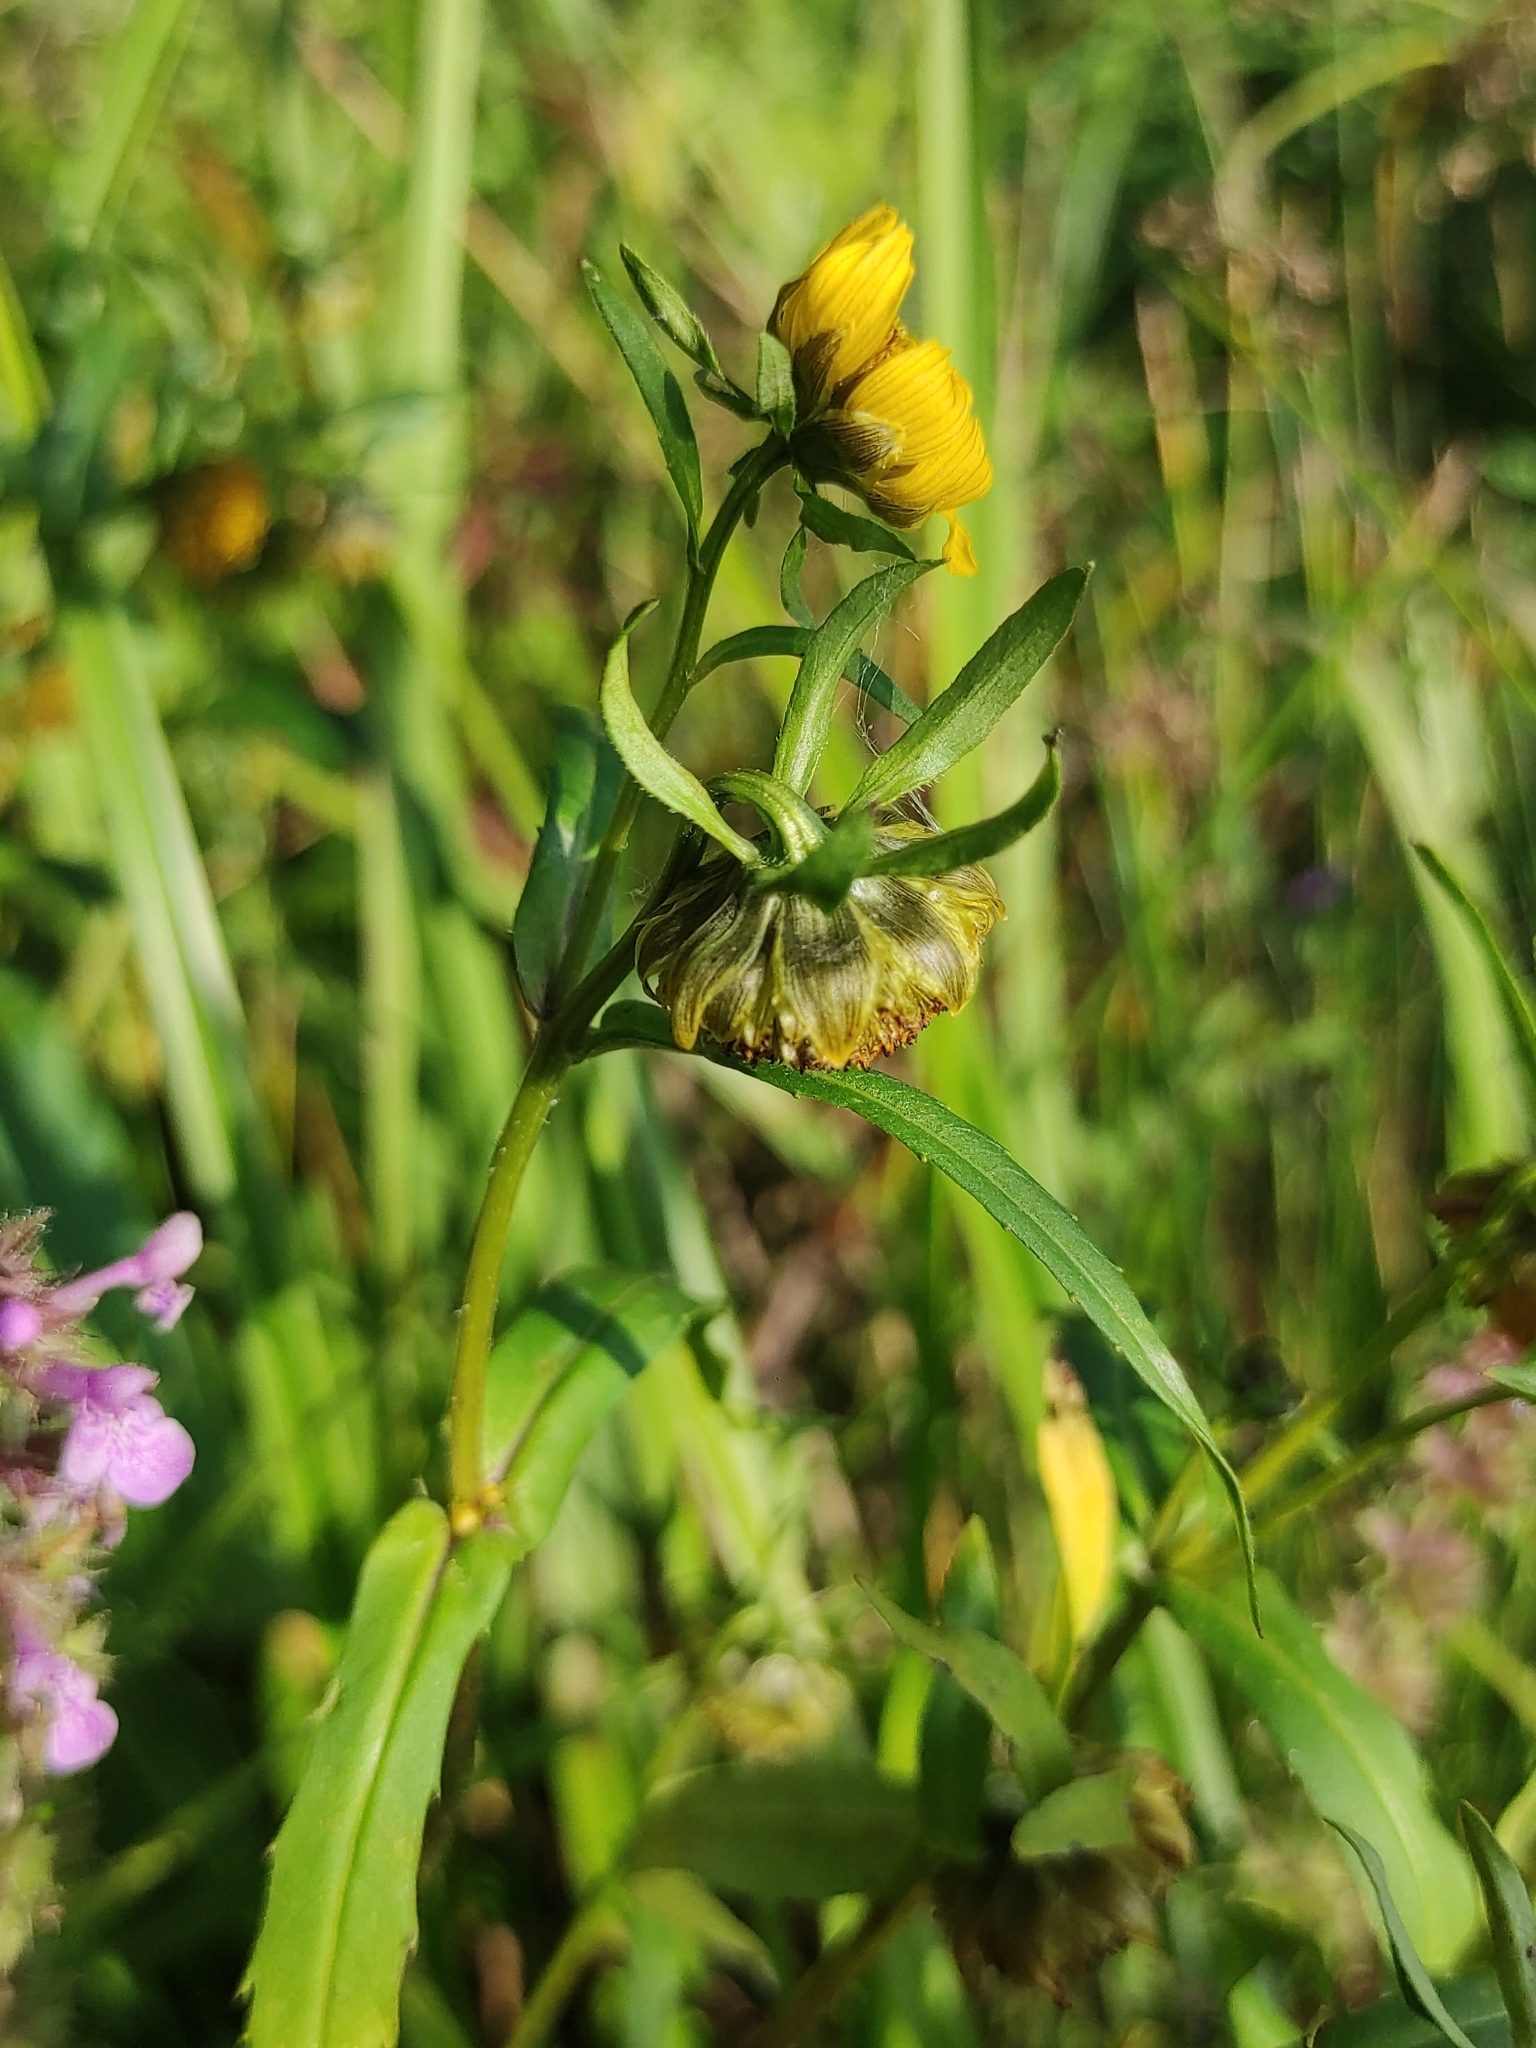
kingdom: Plantae
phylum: Tracheophyta
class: Magnoliopsida
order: Asterales
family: Asteraceae
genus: Bidens
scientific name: Bidens cernua
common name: Nodding bur-marigold
